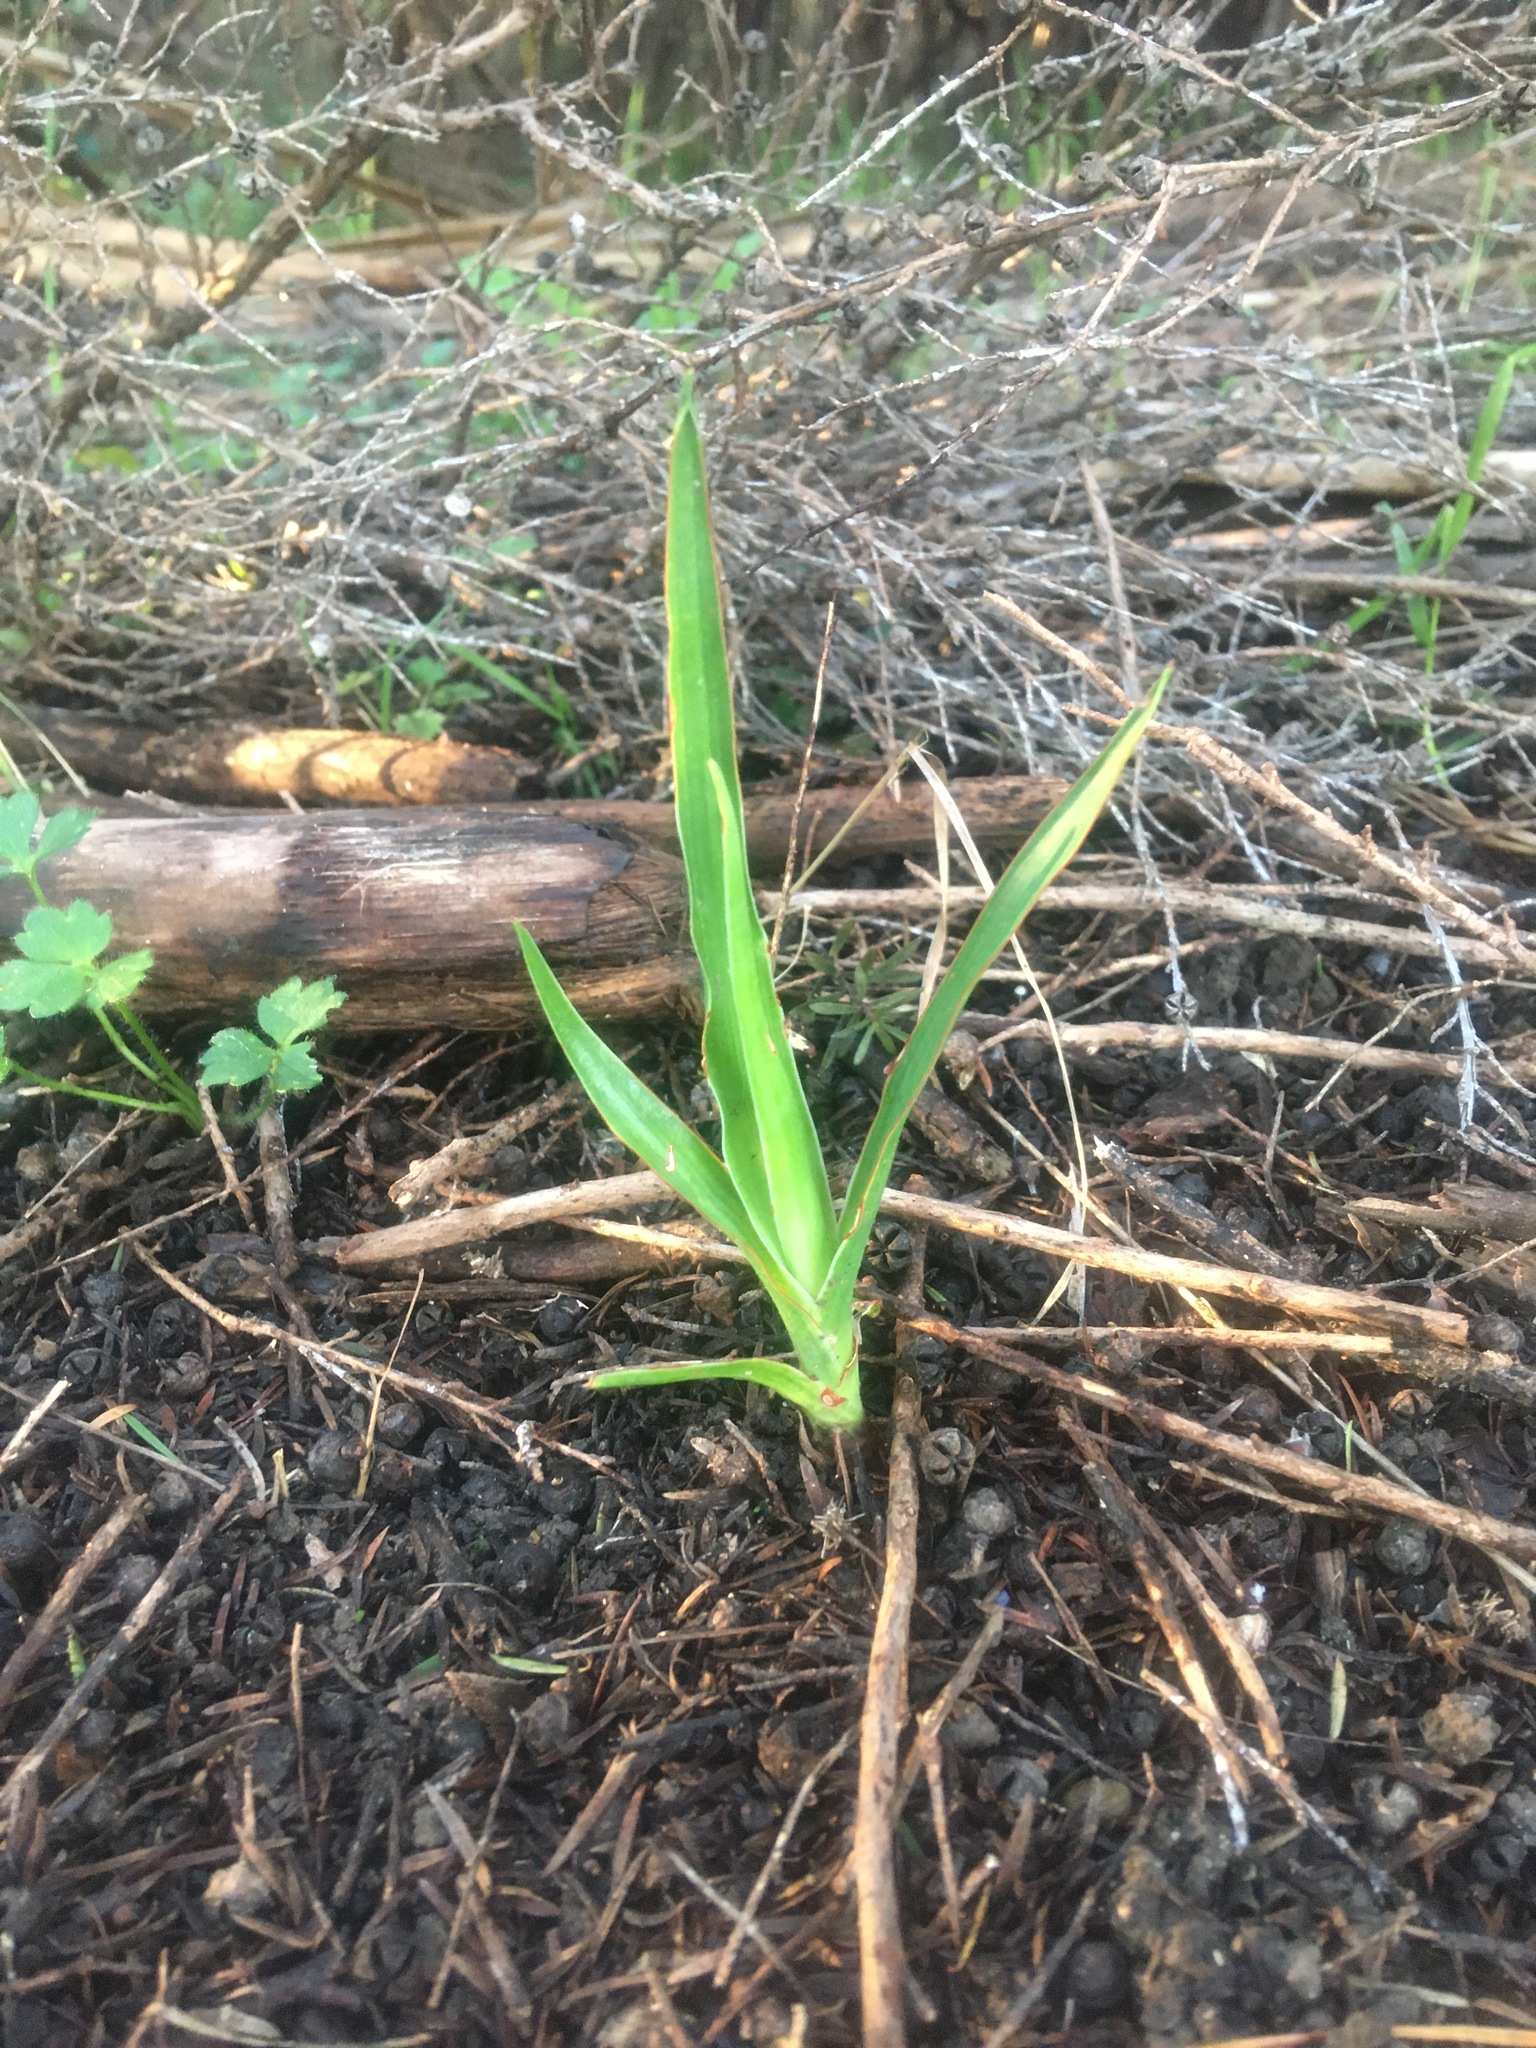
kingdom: Plantae
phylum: Tracheophyta
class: Liliopsida
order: Asparagales
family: Asparagaceae
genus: Dracaena
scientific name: Dracaena draco
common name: Canary island dragon tree
